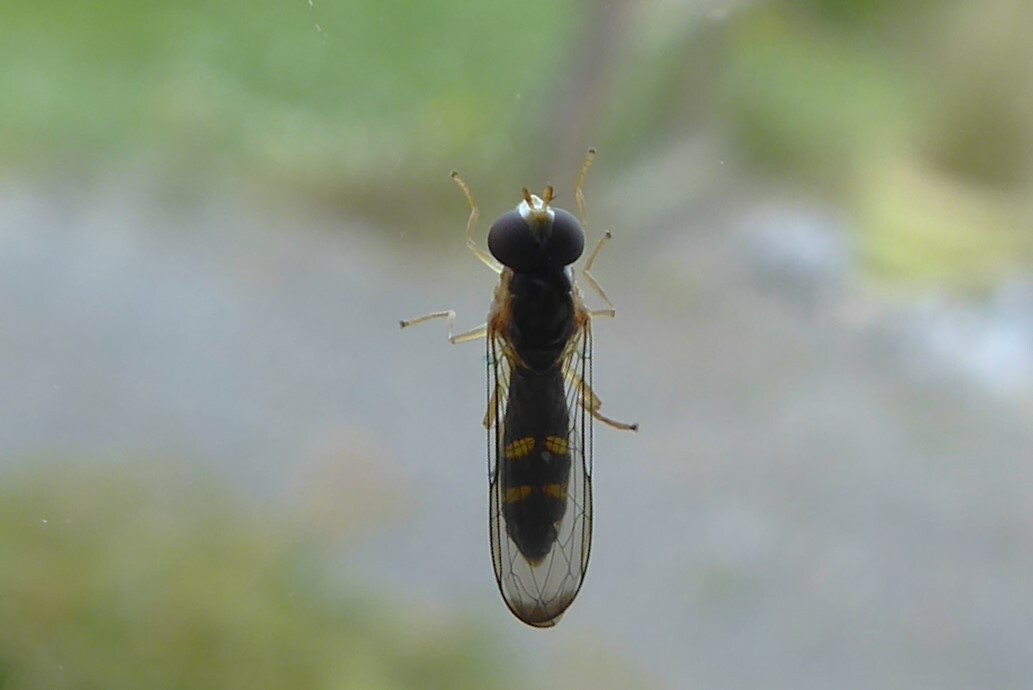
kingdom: Animalia
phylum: Arthropoda
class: Insecta
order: Diptera
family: Syrphidae
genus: Allograpta
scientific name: Allograpta ventralis
